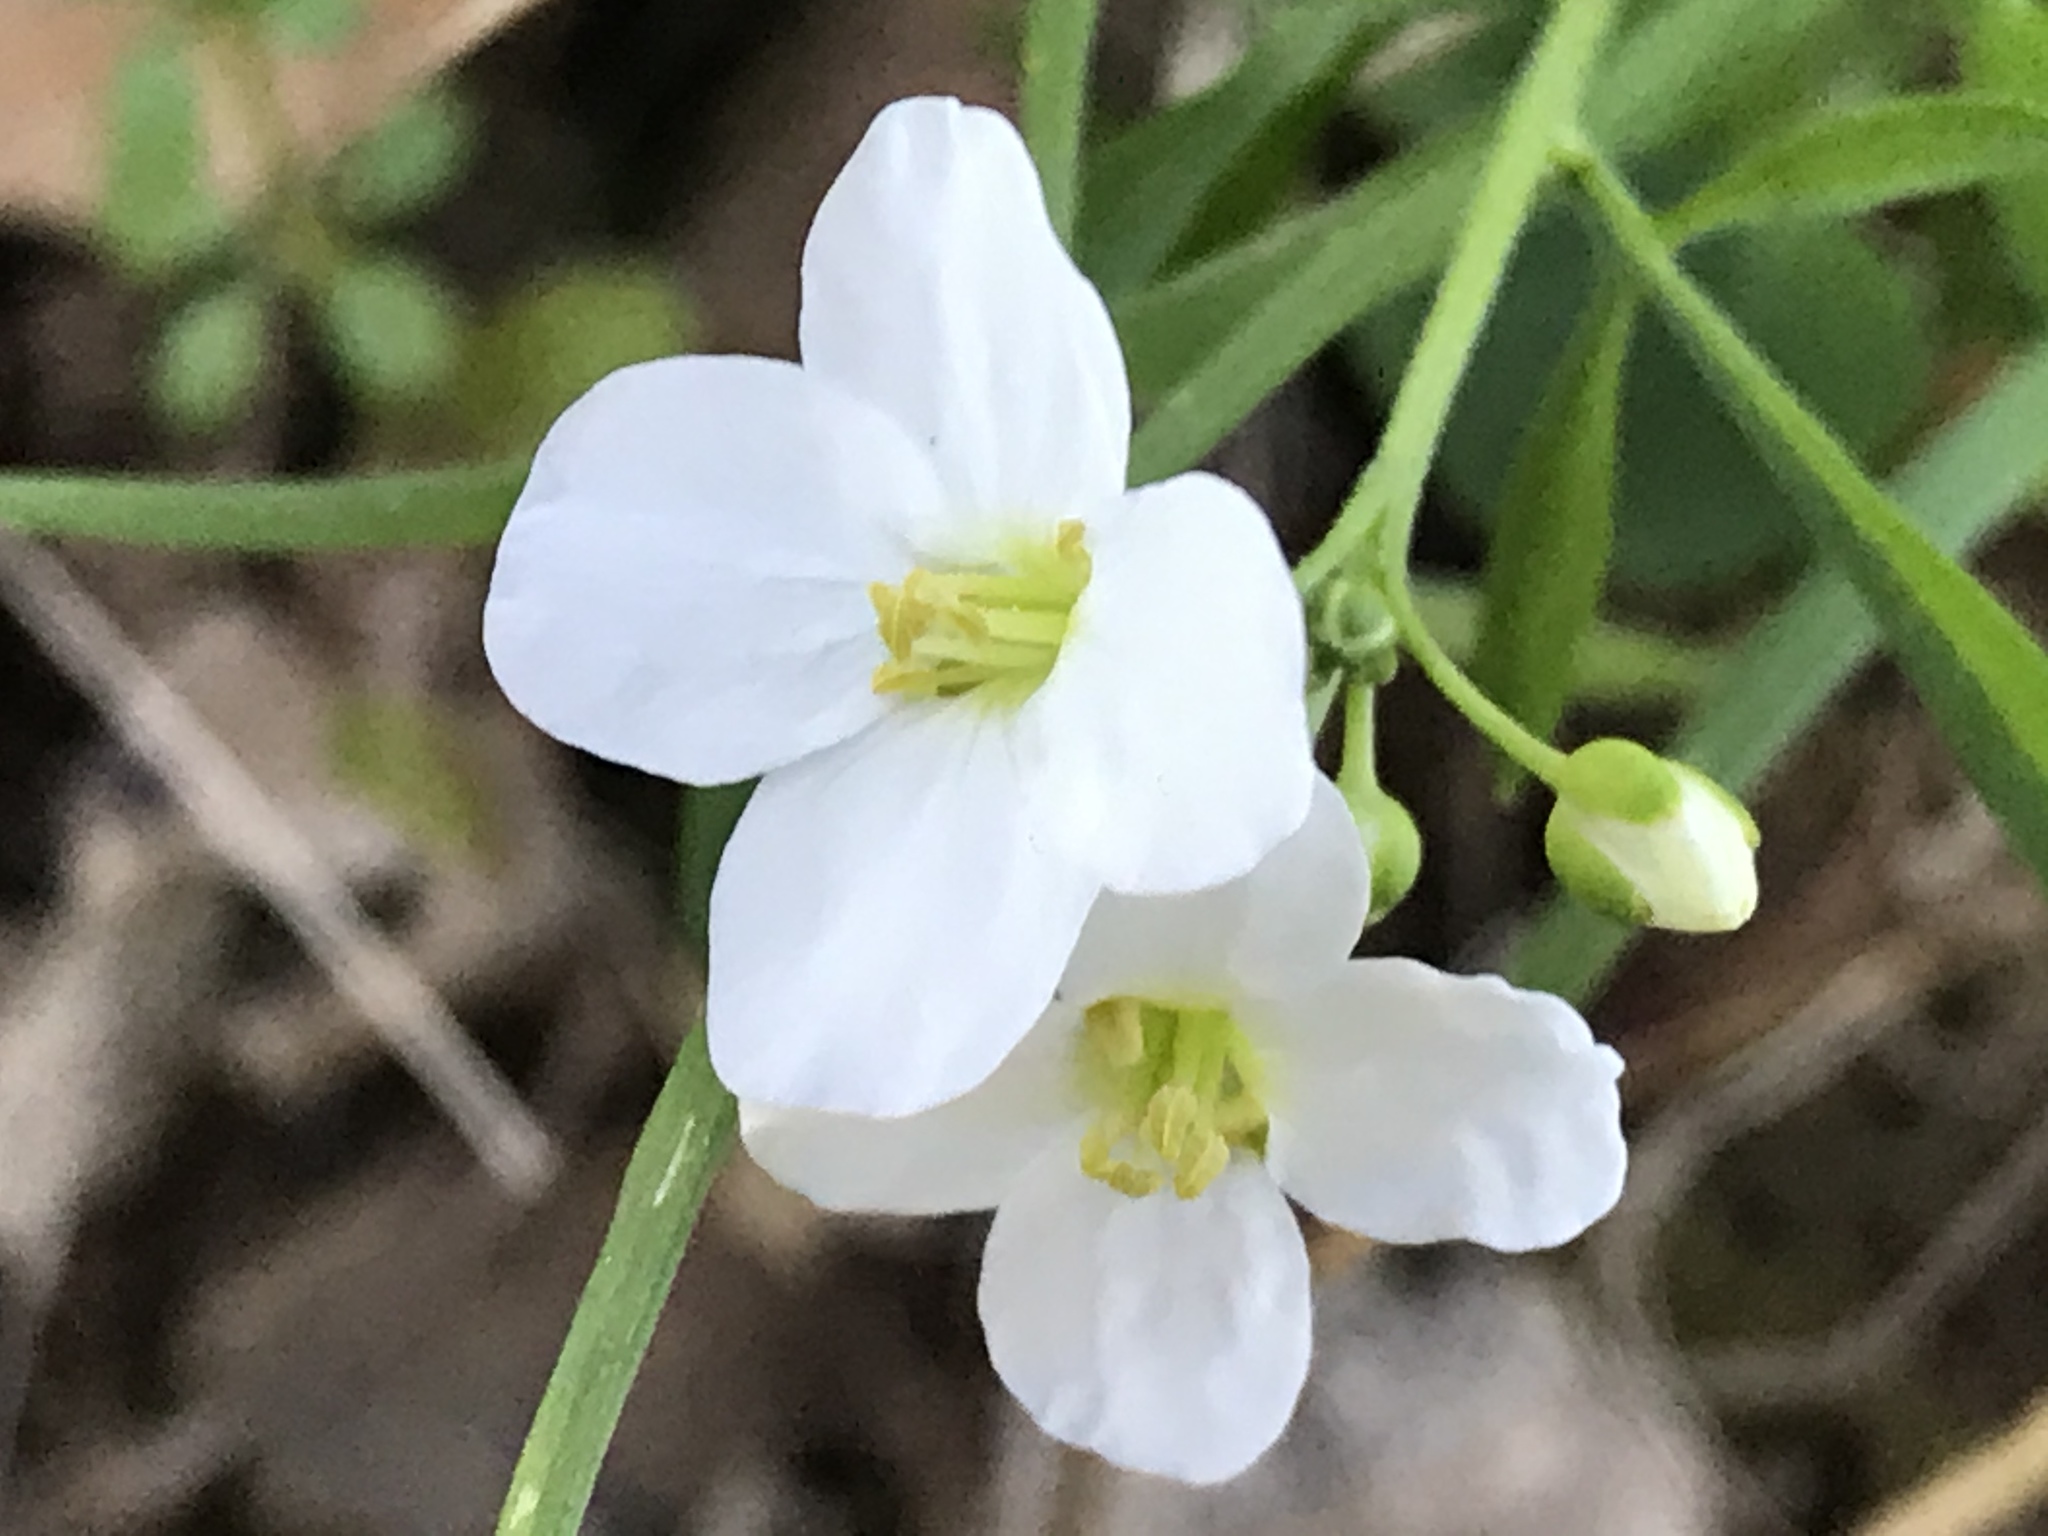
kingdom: Plantae
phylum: Tracheophyta
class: Magnoliopsida
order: Brassicales
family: Brassicaceae
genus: Cardamine
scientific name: Cardamine californica
